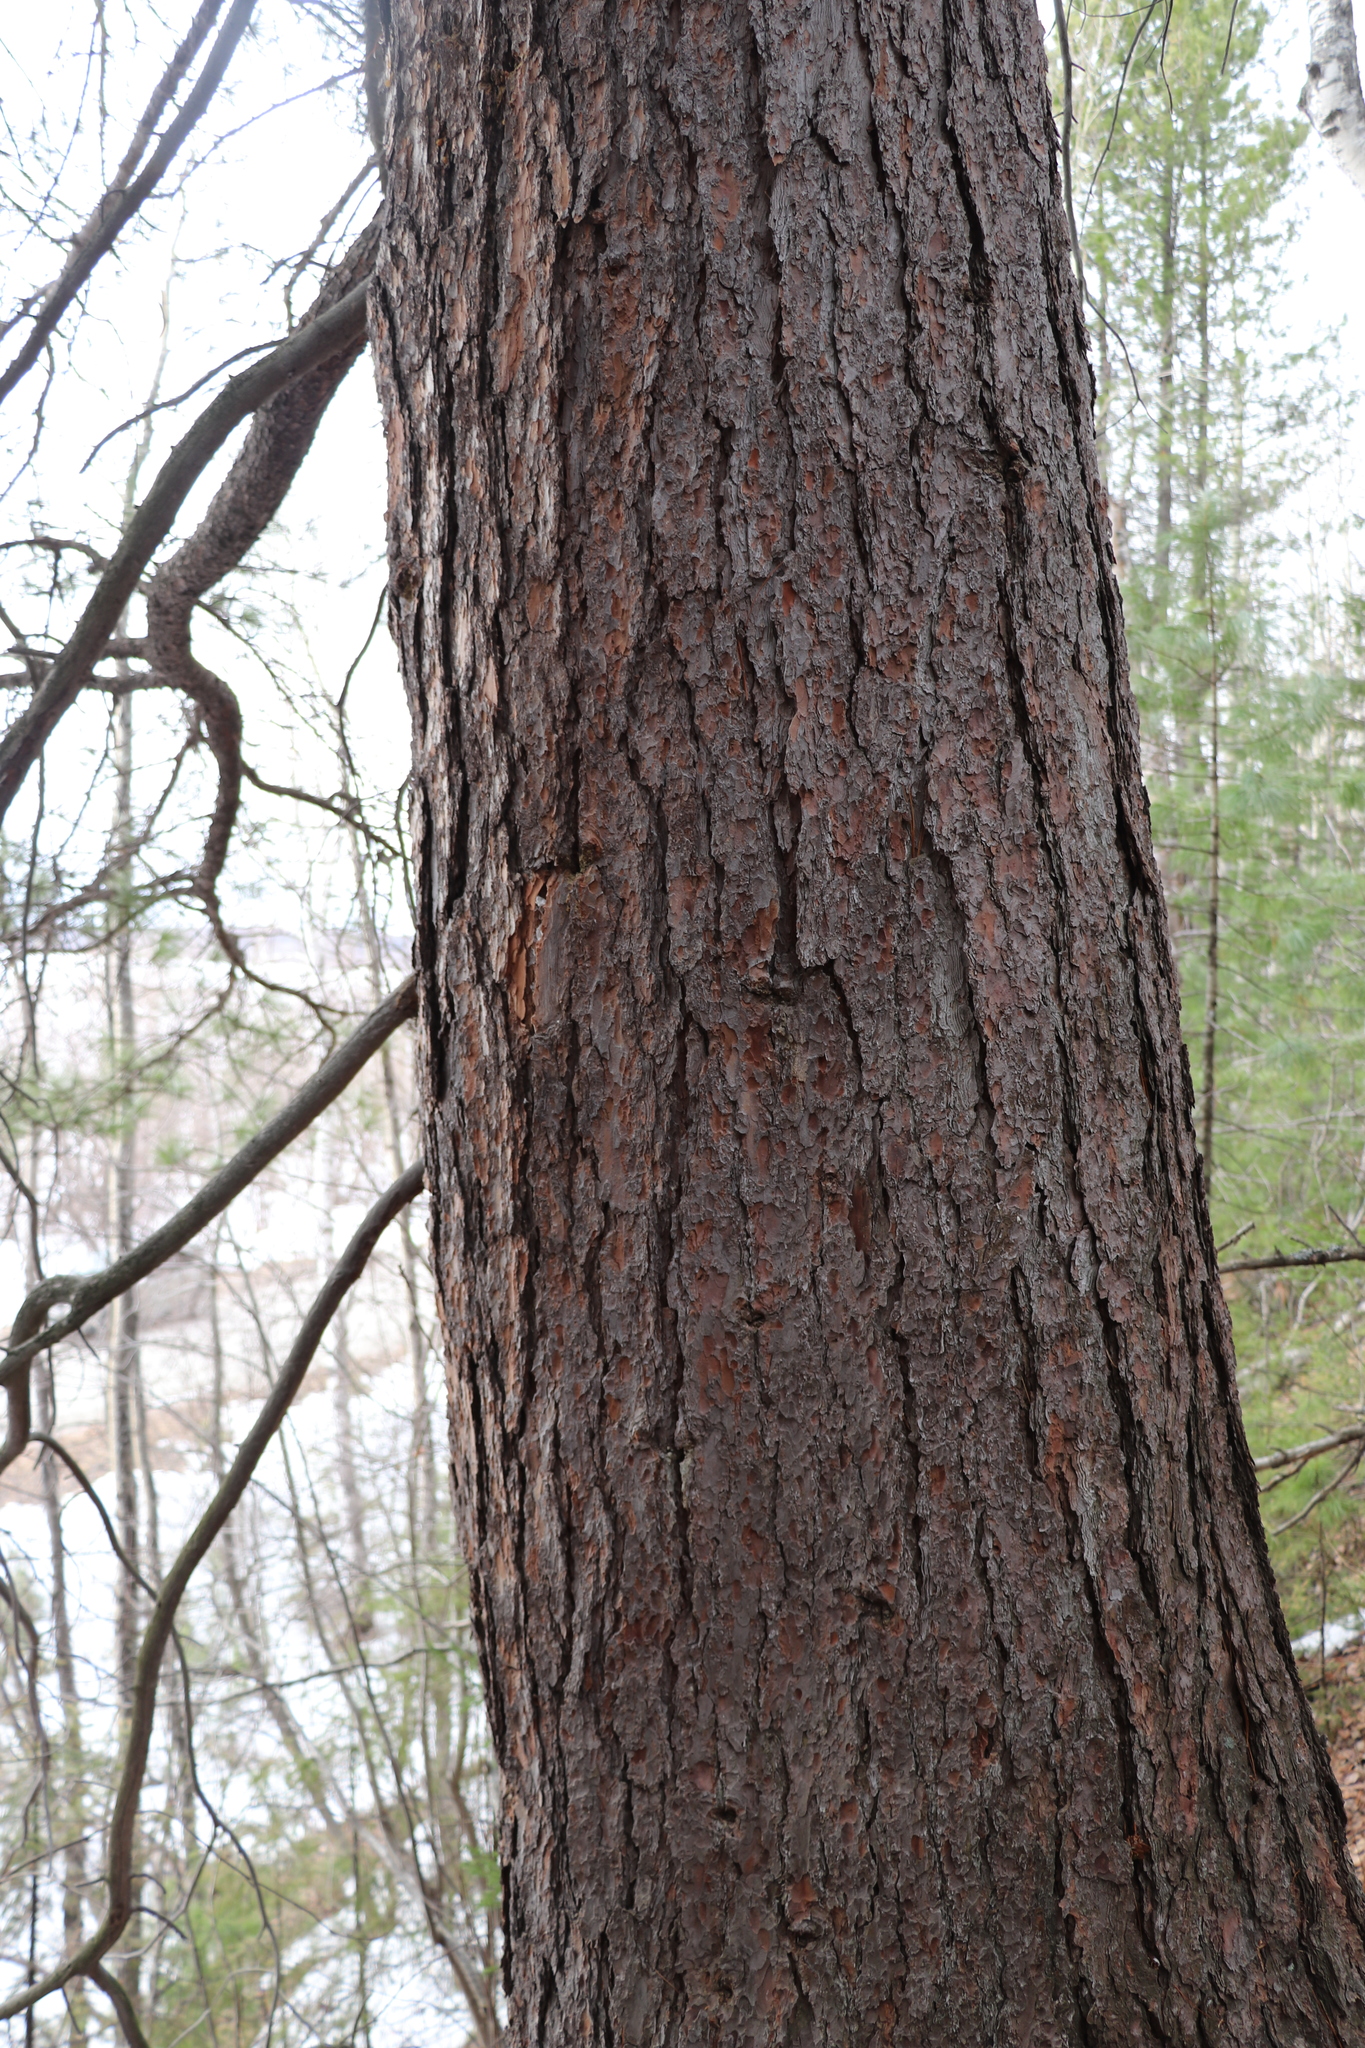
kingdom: Plantae
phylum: Tracheophyta
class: Pinopsida
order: Pinales
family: Pinaceae
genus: Pinus
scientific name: Pinus sibirica
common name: Siberian pine
